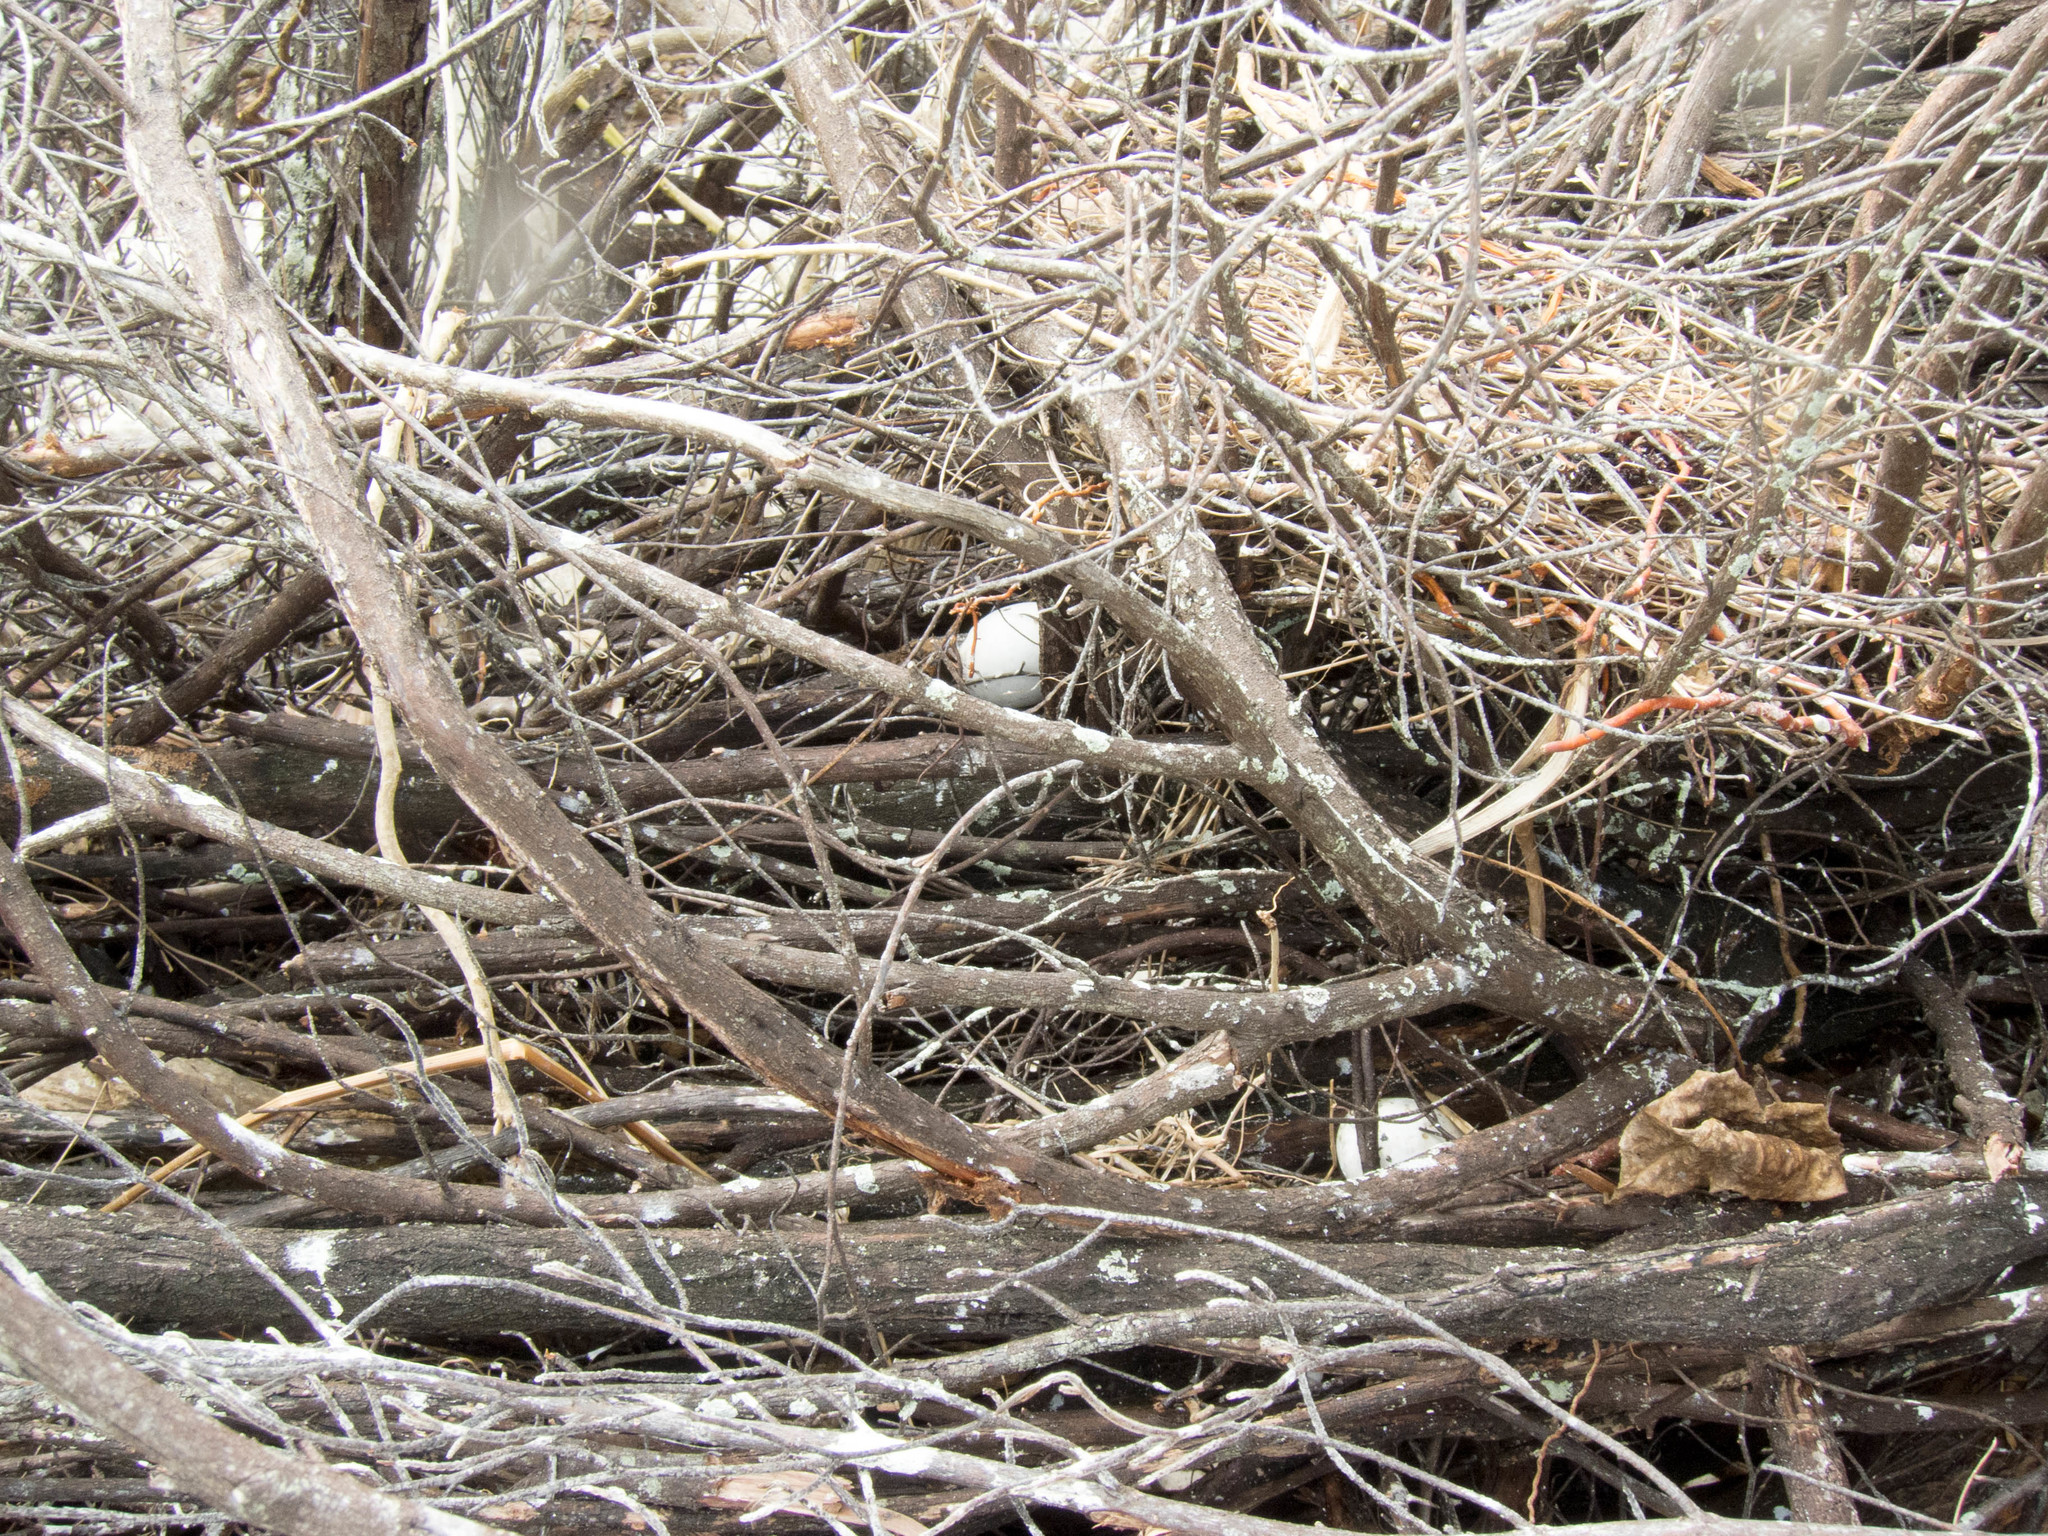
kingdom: Animalia
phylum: Chordata
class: Aves
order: Charadriiformes
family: Laridae
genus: Anous
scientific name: Anous stolidus
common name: Brown noddy
